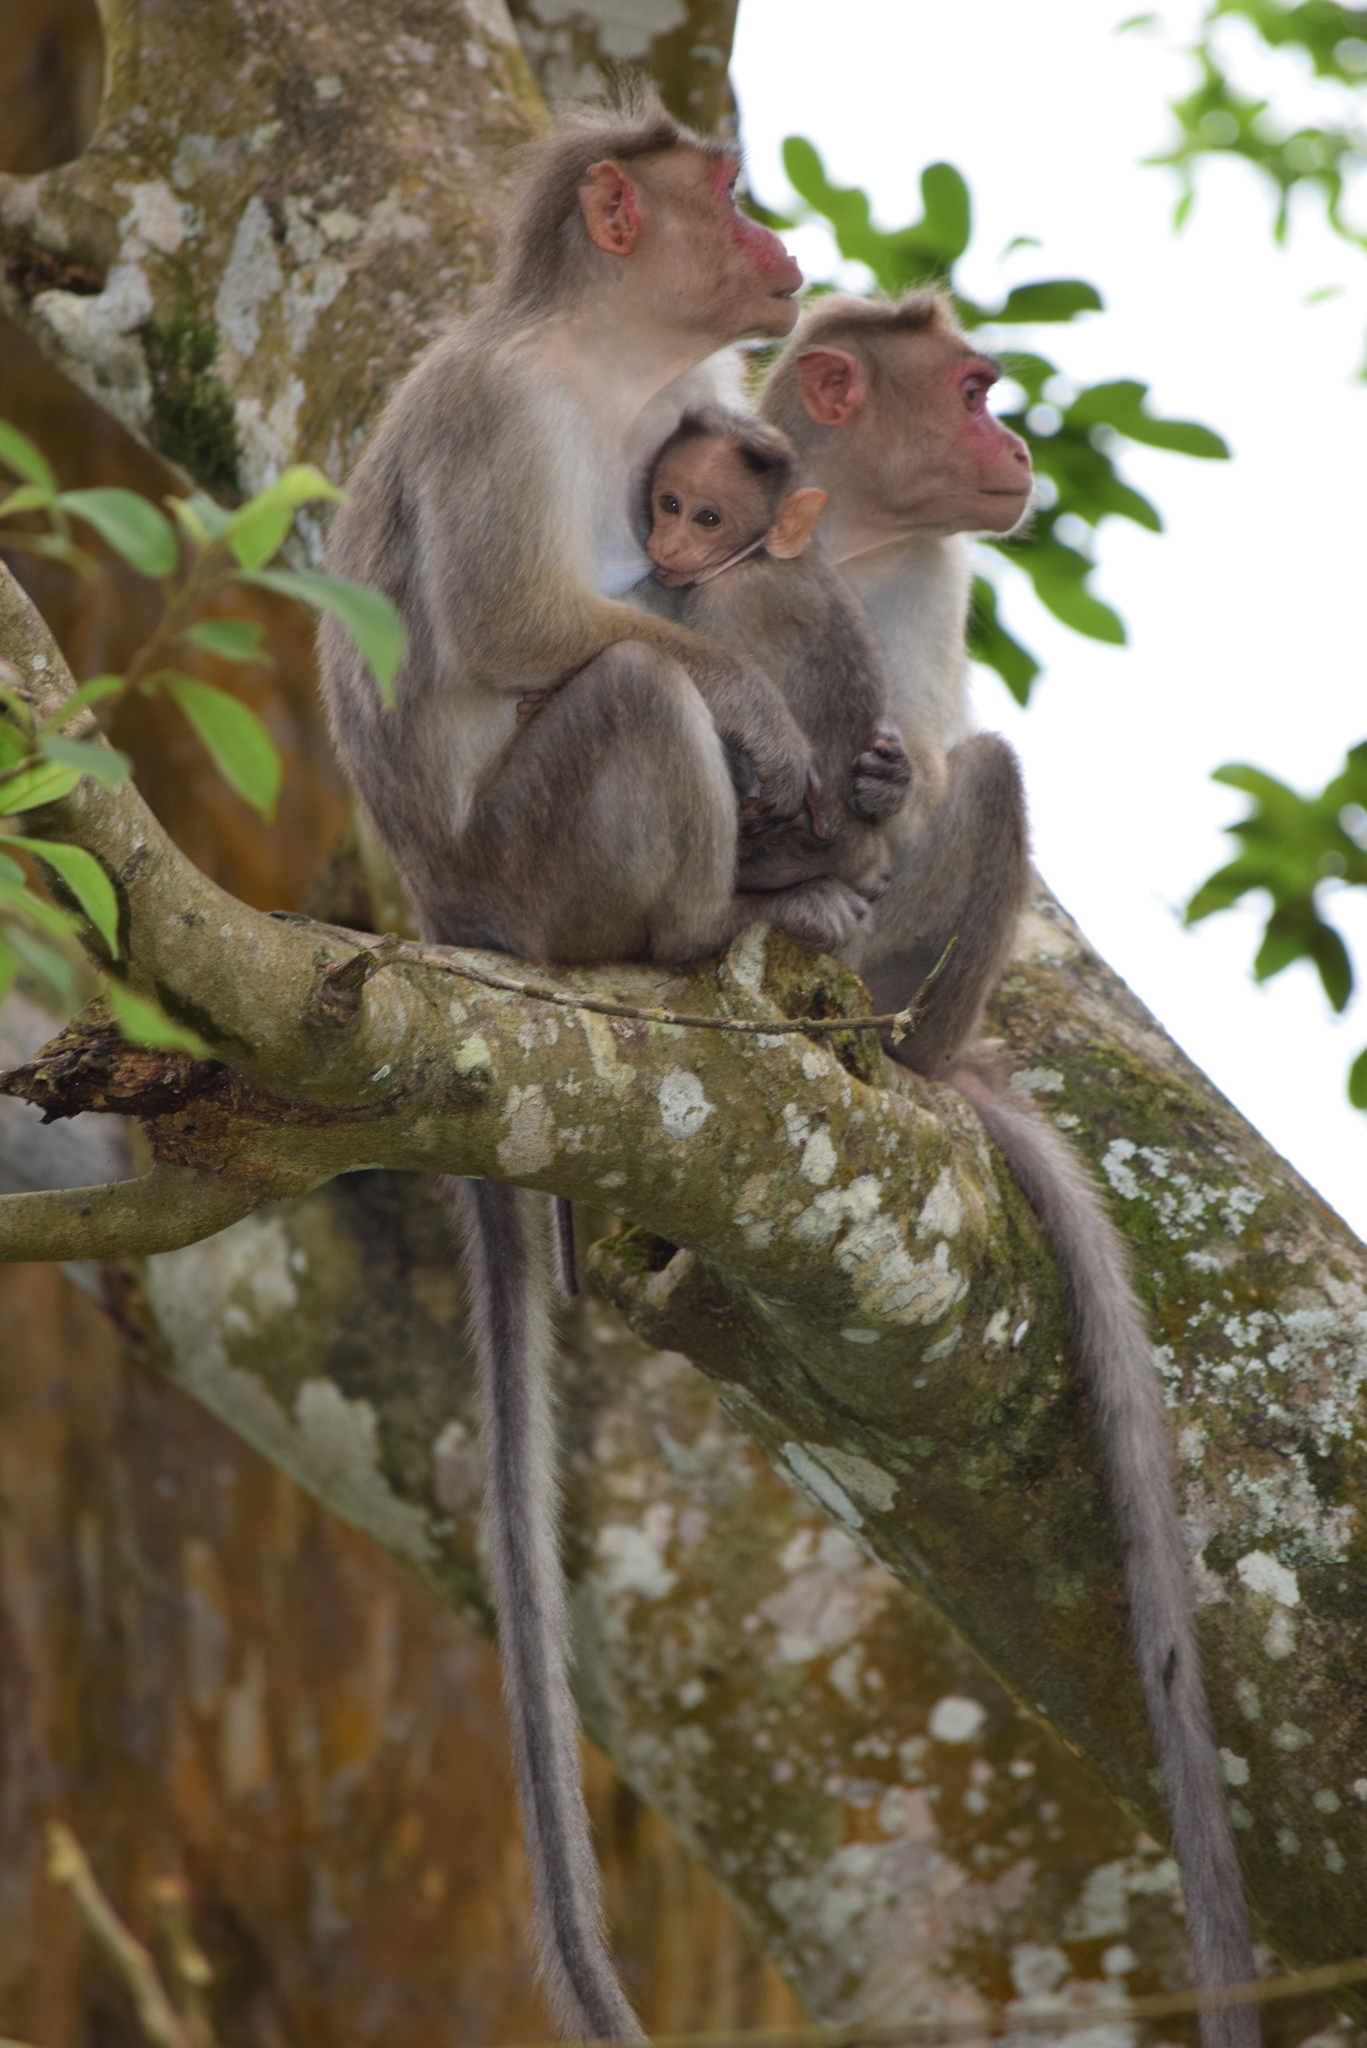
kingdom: Animalia
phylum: Chordata
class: Mammalia
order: Primates
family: Cercopithecidae
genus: Macaca
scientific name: Macaca radiata
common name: Bonnet macaque
